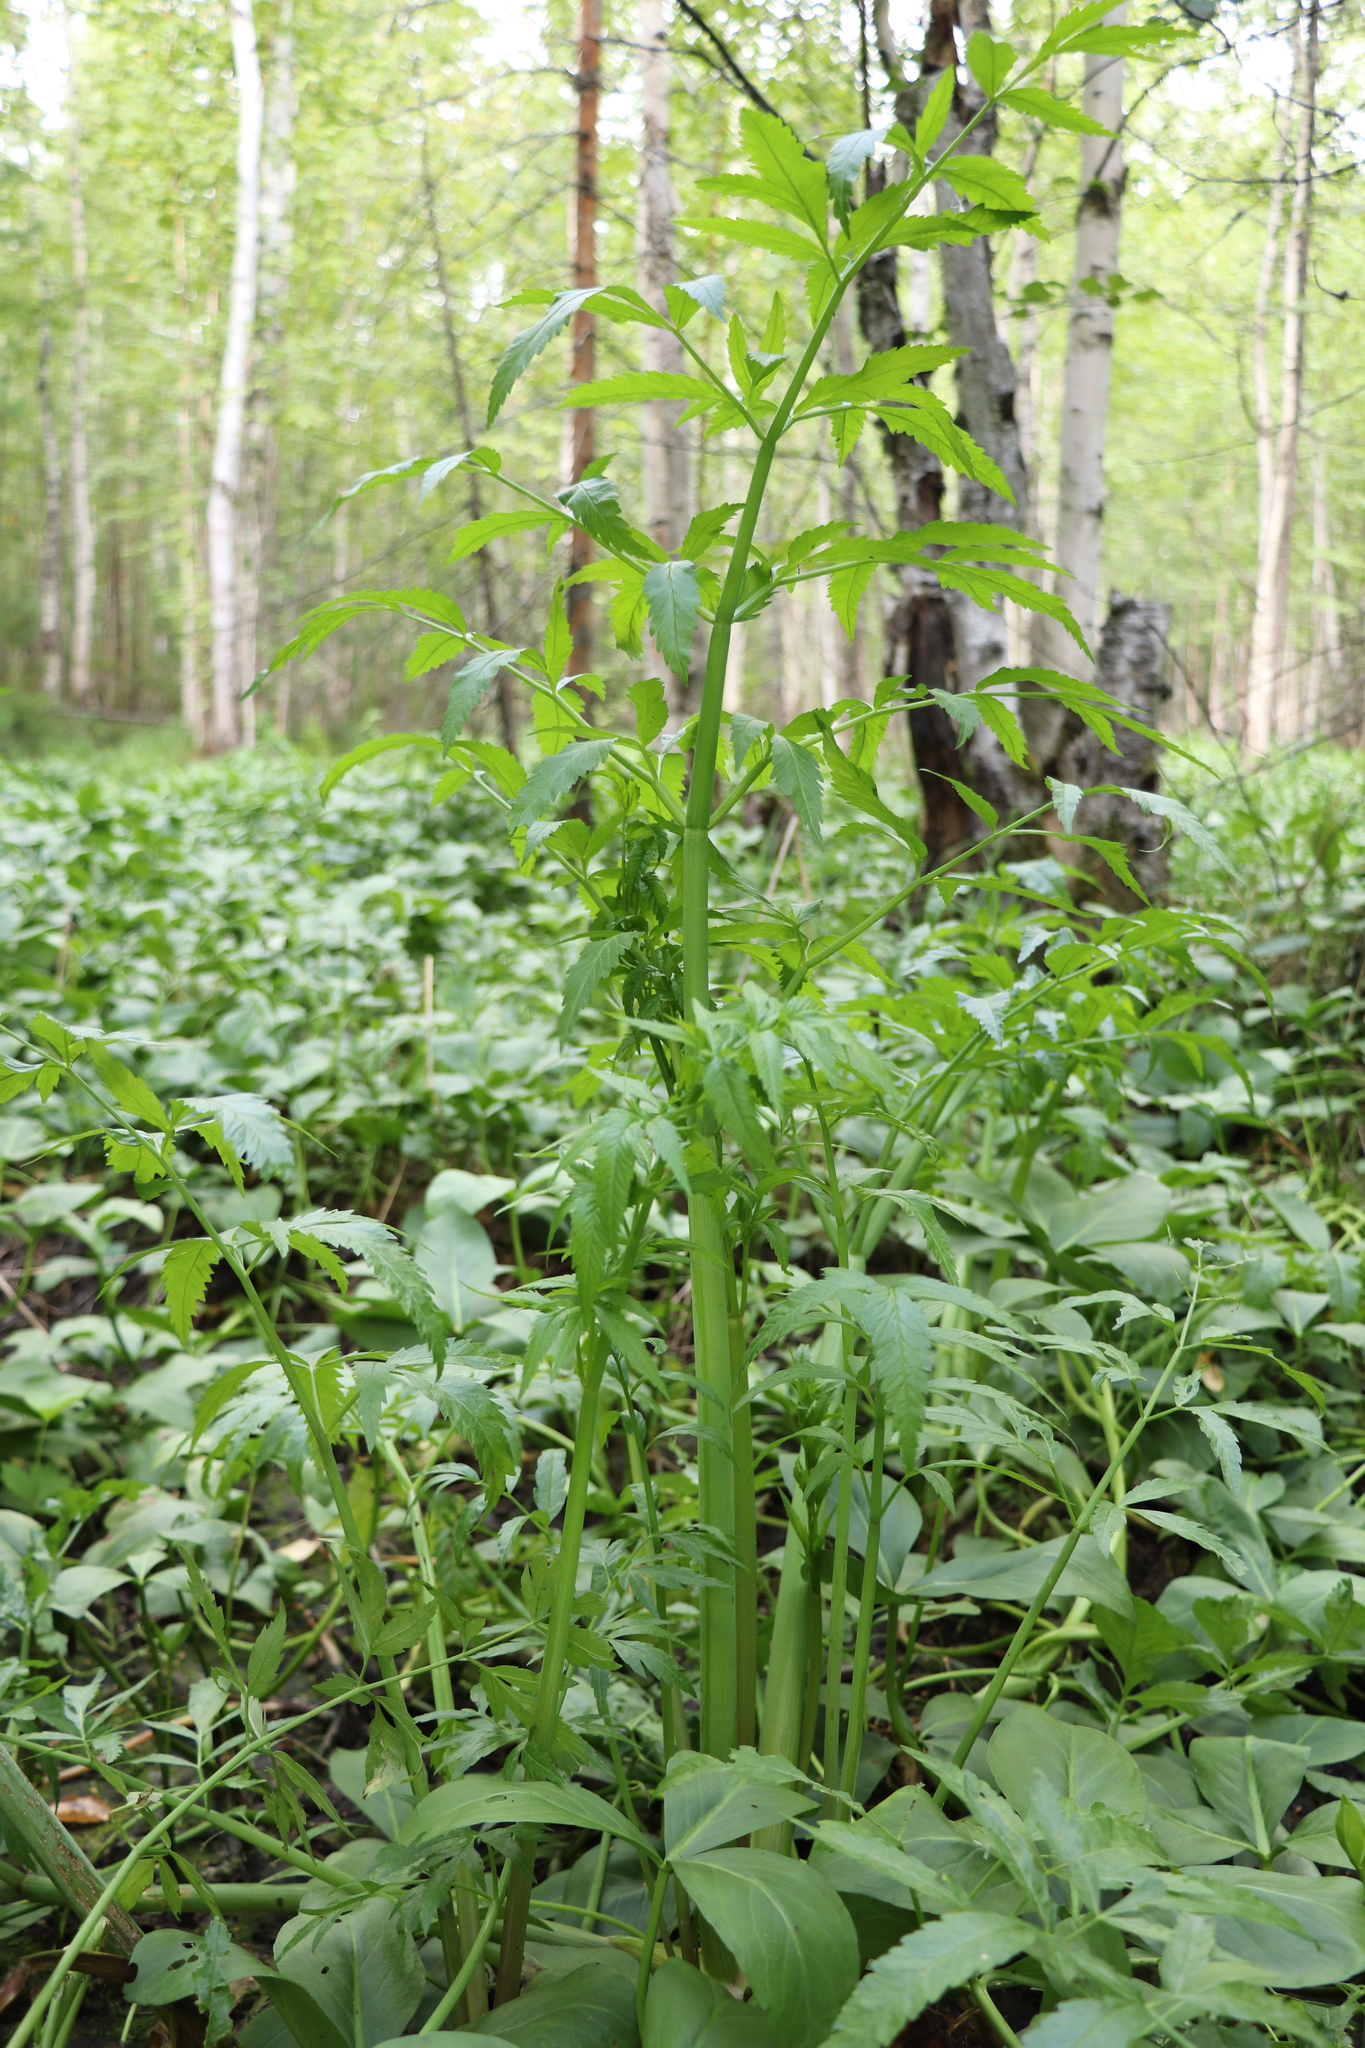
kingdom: Plantae
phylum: Tracheophyta
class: Magnoliopsida
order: Apiales
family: Apiaceae
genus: Cicuta
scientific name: Cicuta virosa
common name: Cowbane
